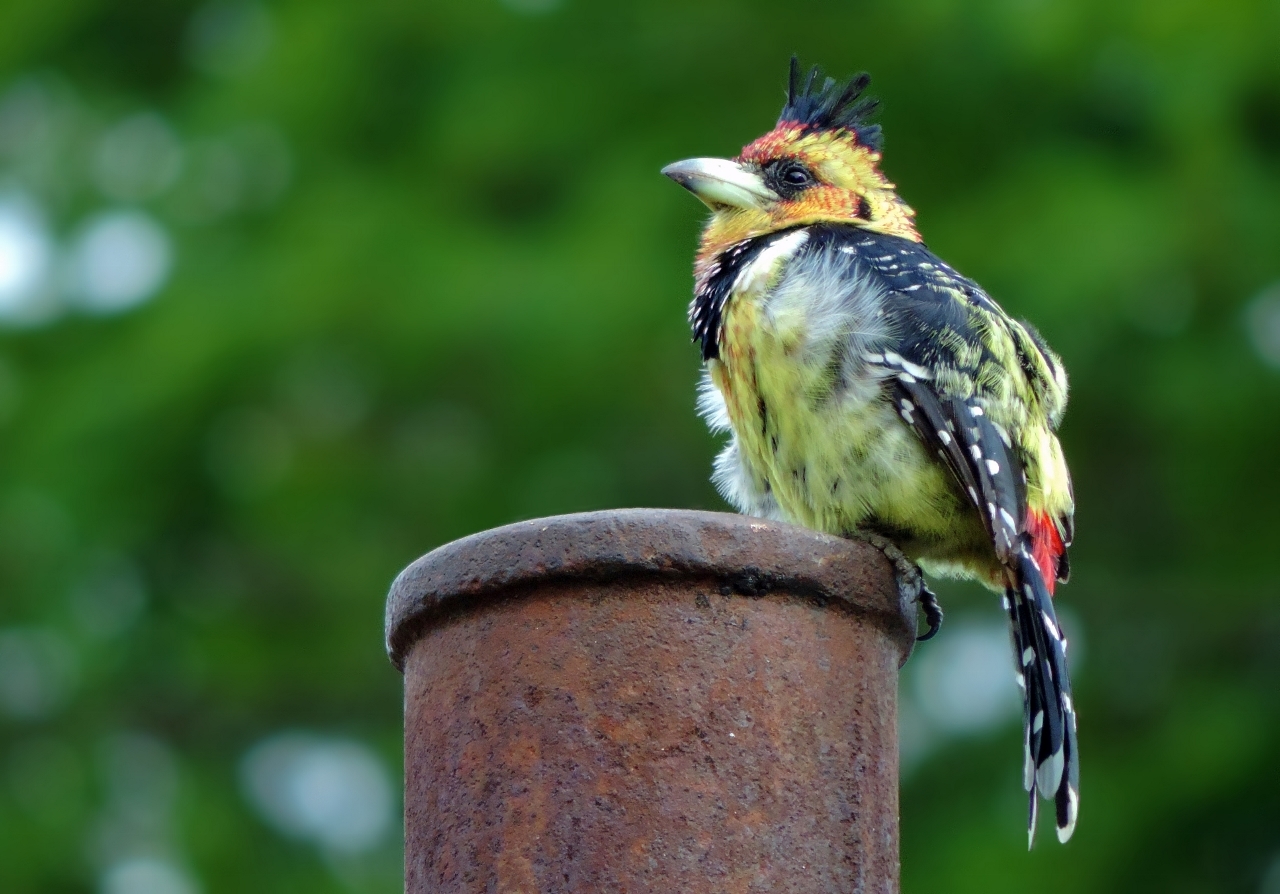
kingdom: Animalia
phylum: Chordata
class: Aves
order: Piciformes
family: Lybiidae
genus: Trachyphonus
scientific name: Trachyphonus vaillantii
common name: Crested barbet
